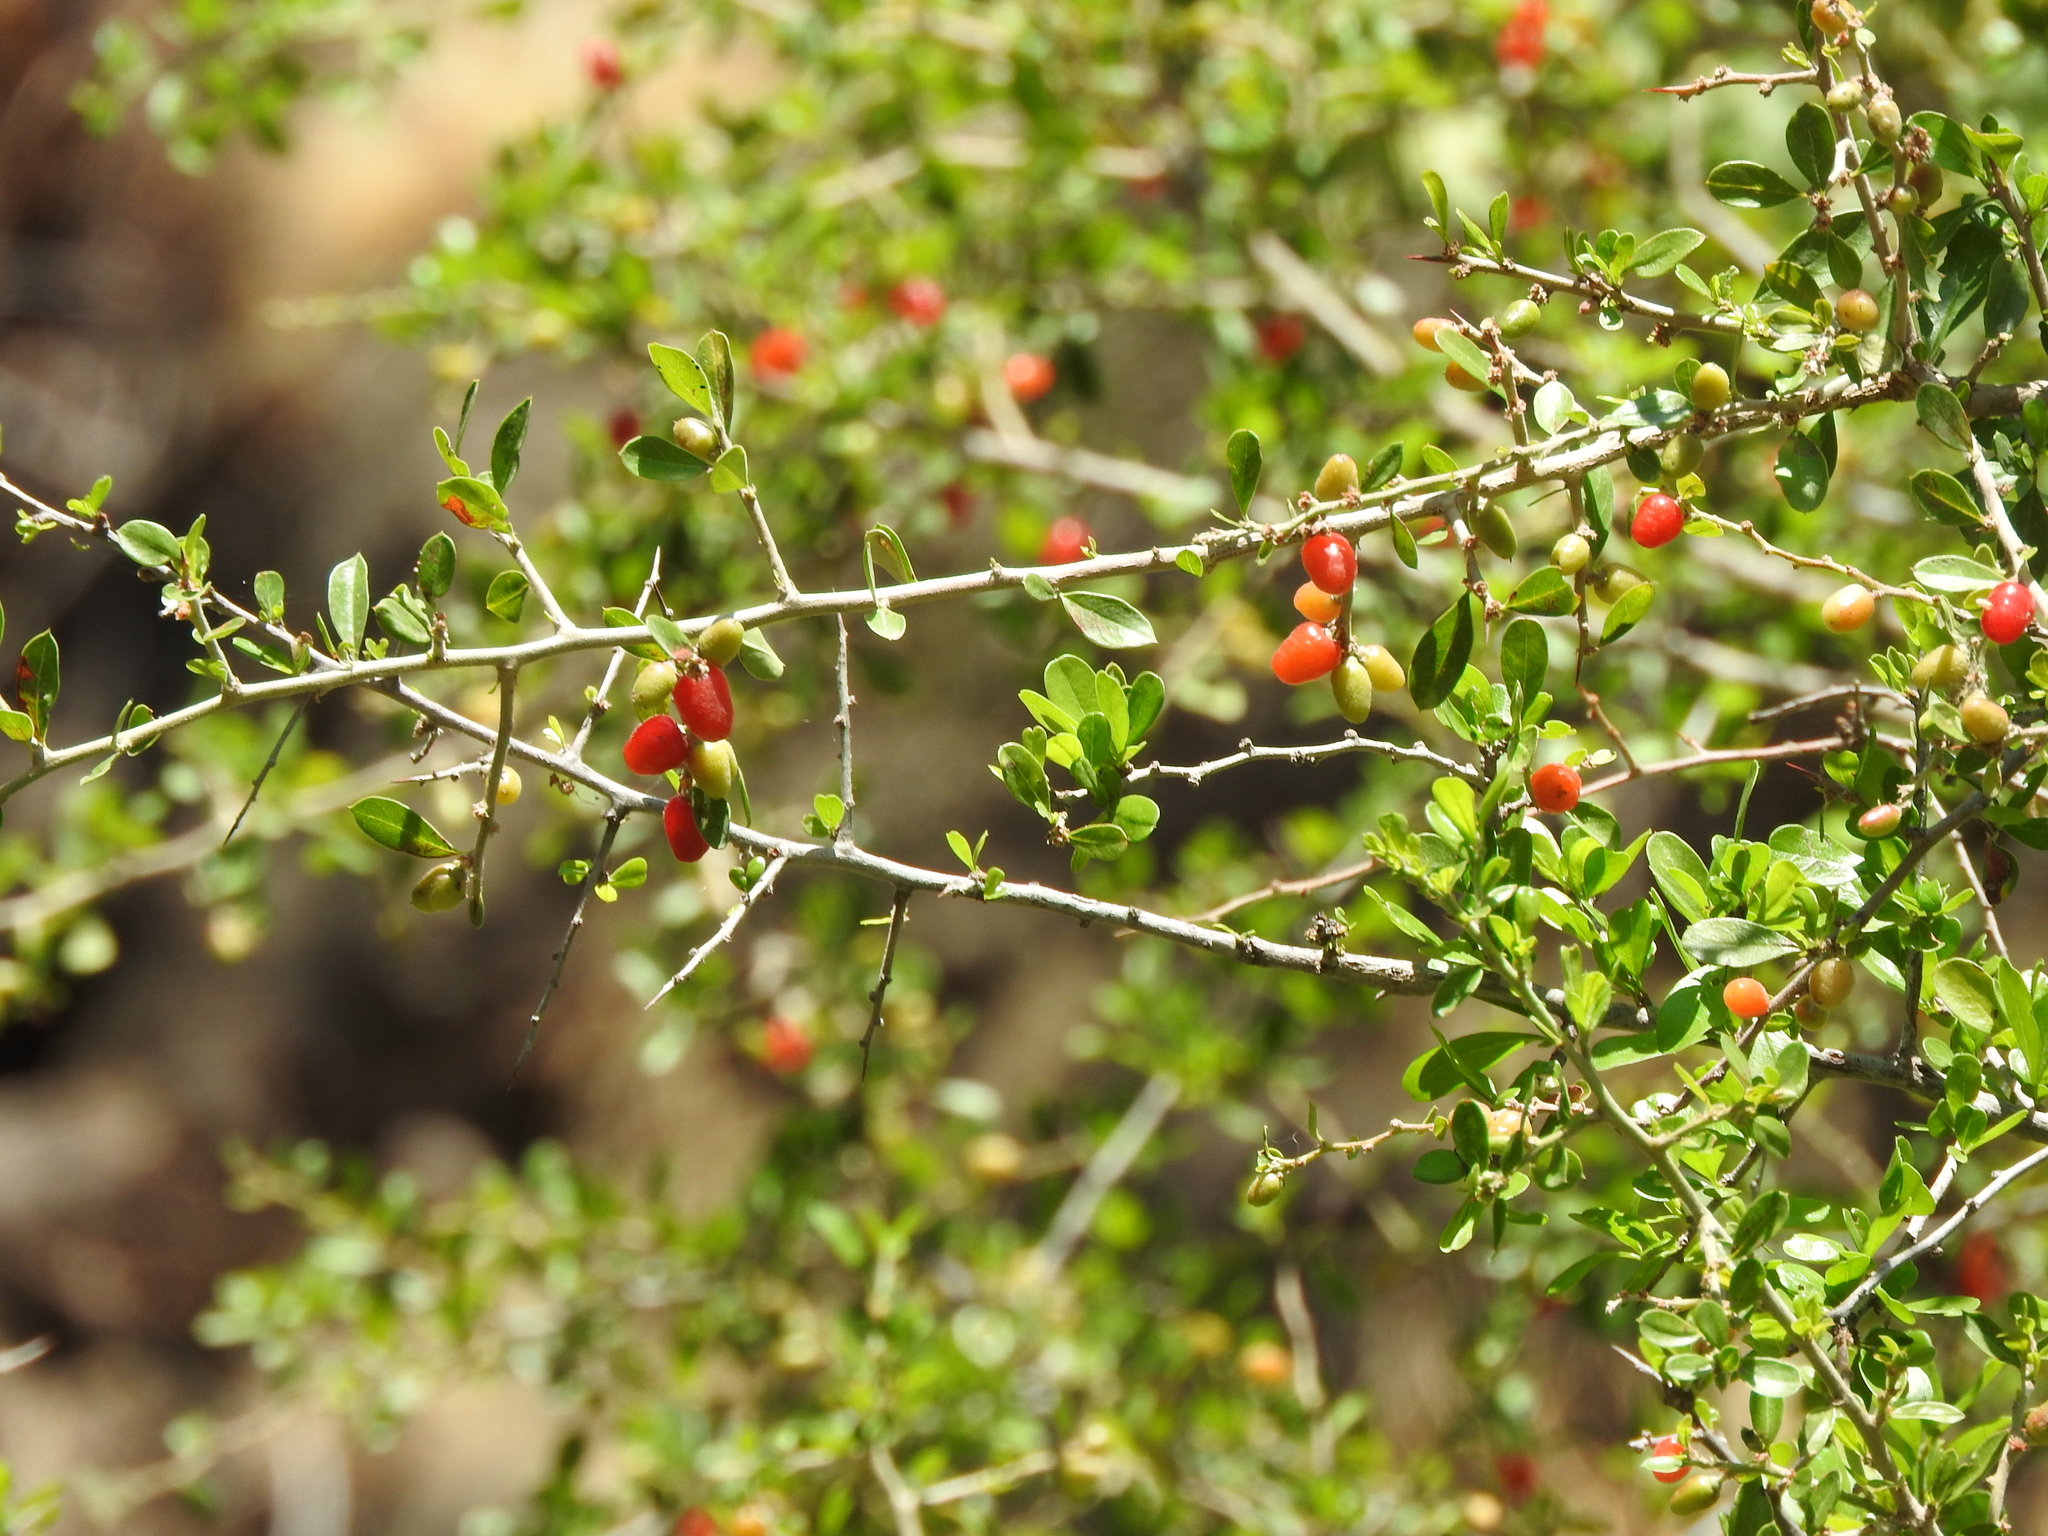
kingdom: Plantae
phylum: Tracheophyta
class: Magnoliopsida
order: Rosales
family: Rhamnaceae
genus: Condalia
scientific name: Condalia velutina
